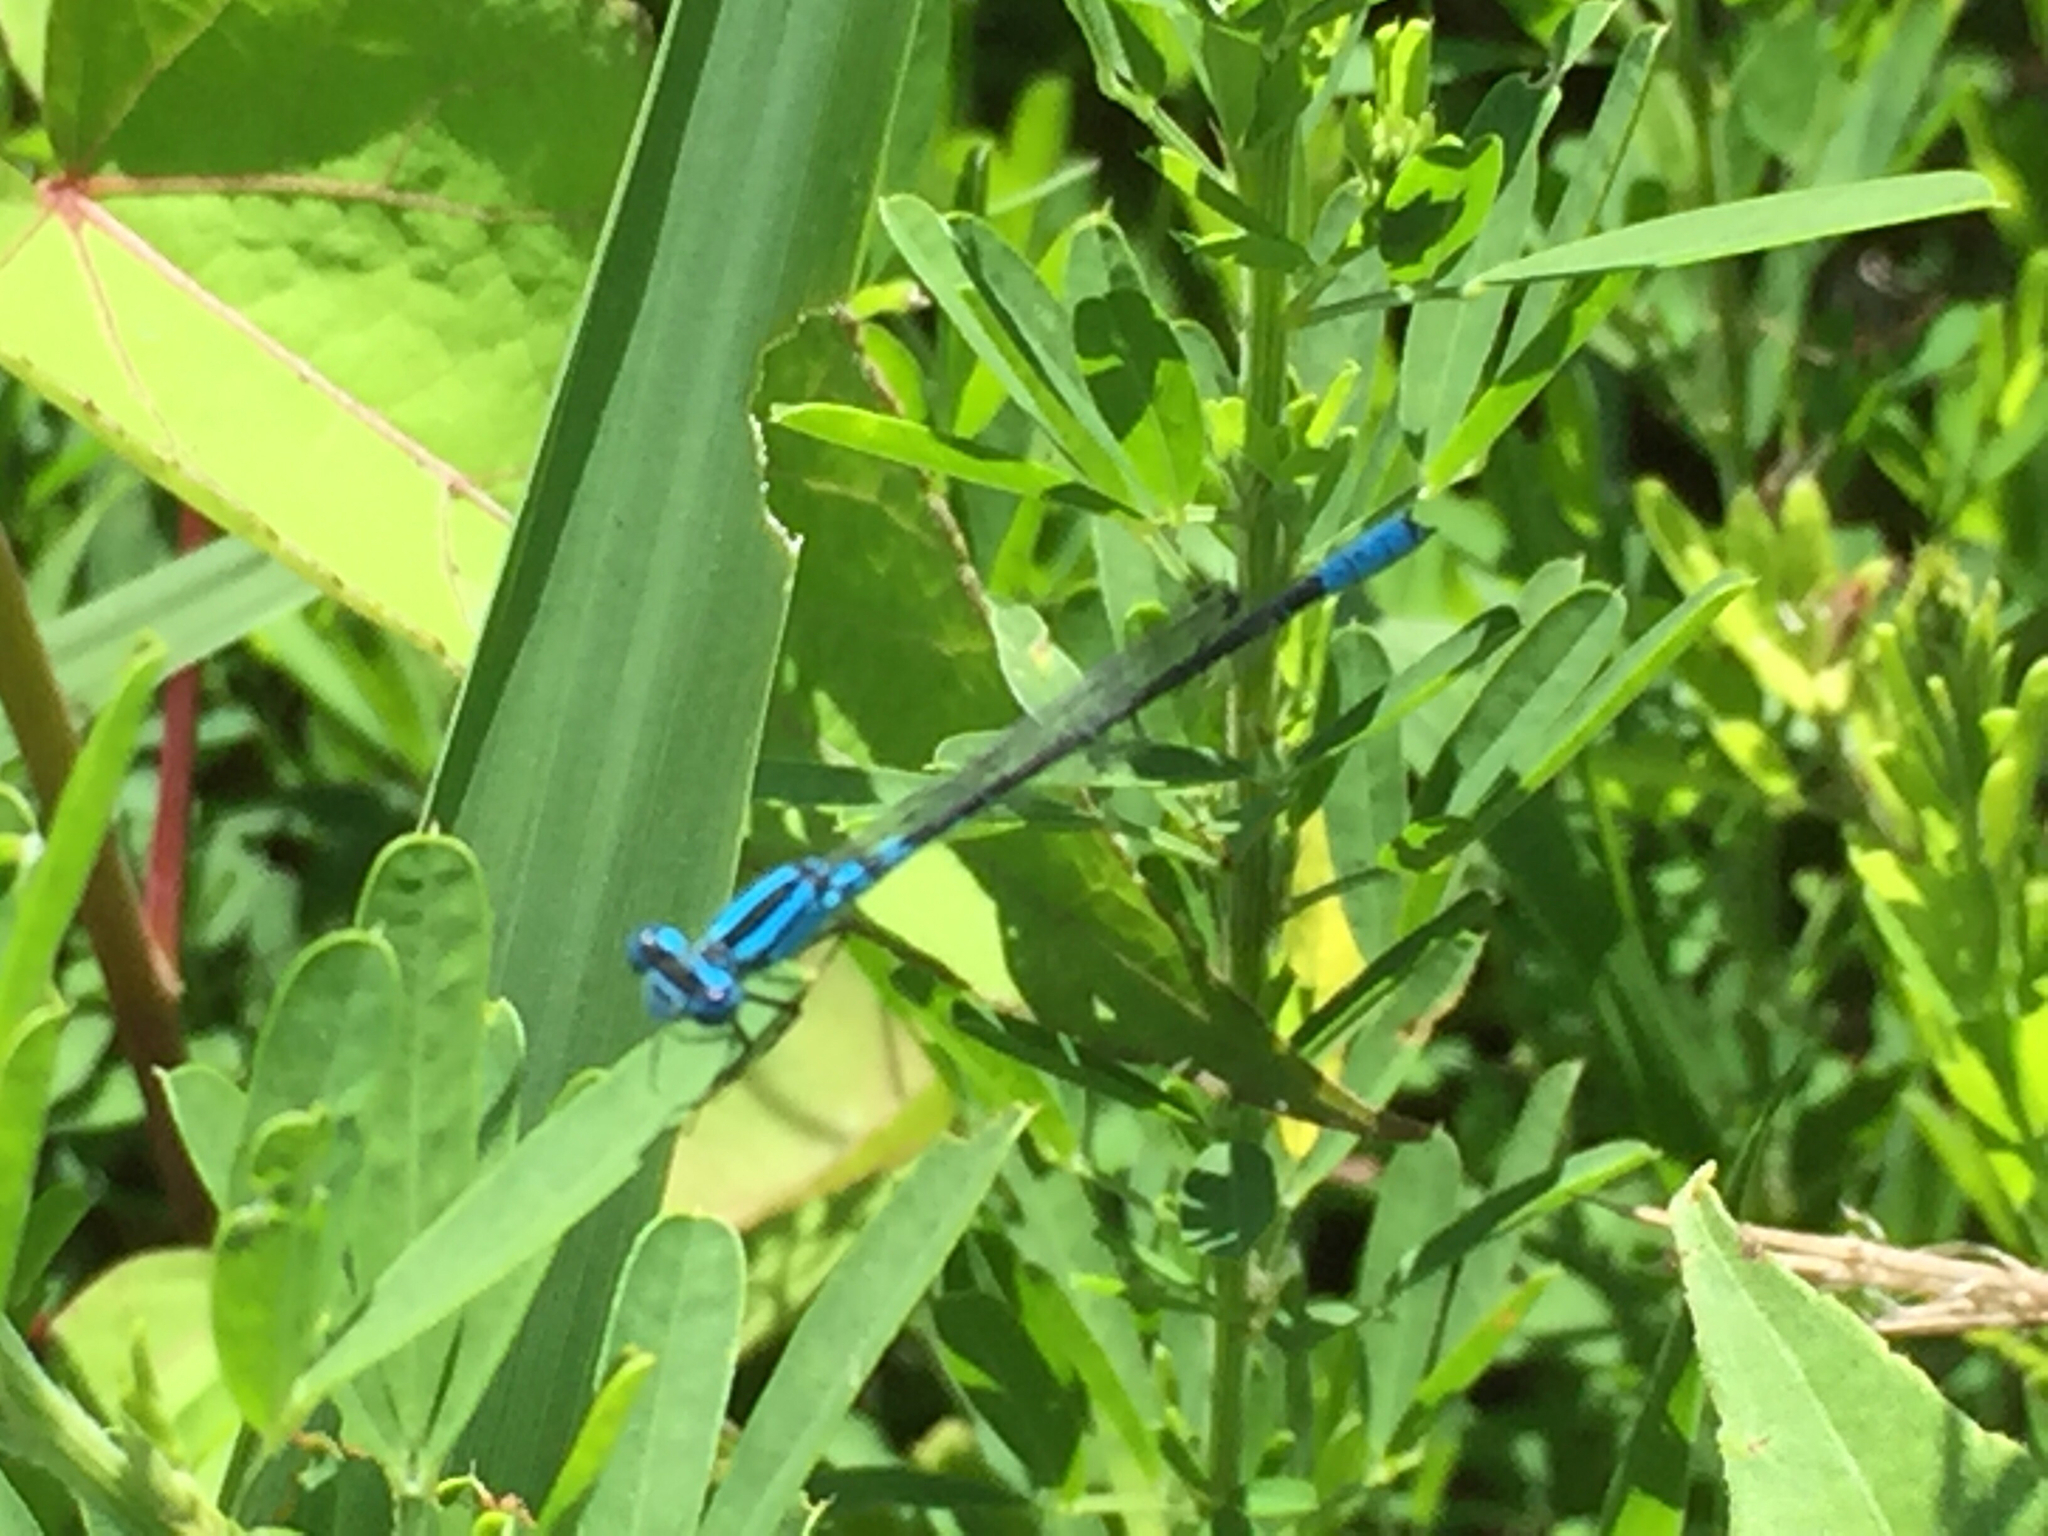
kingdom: Animalia
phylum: Arthropoda
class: Insecta
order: Odonata
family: Coenagrionidae
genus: Enallagma
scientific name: Enallagma aspersum
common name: Azure bluet
